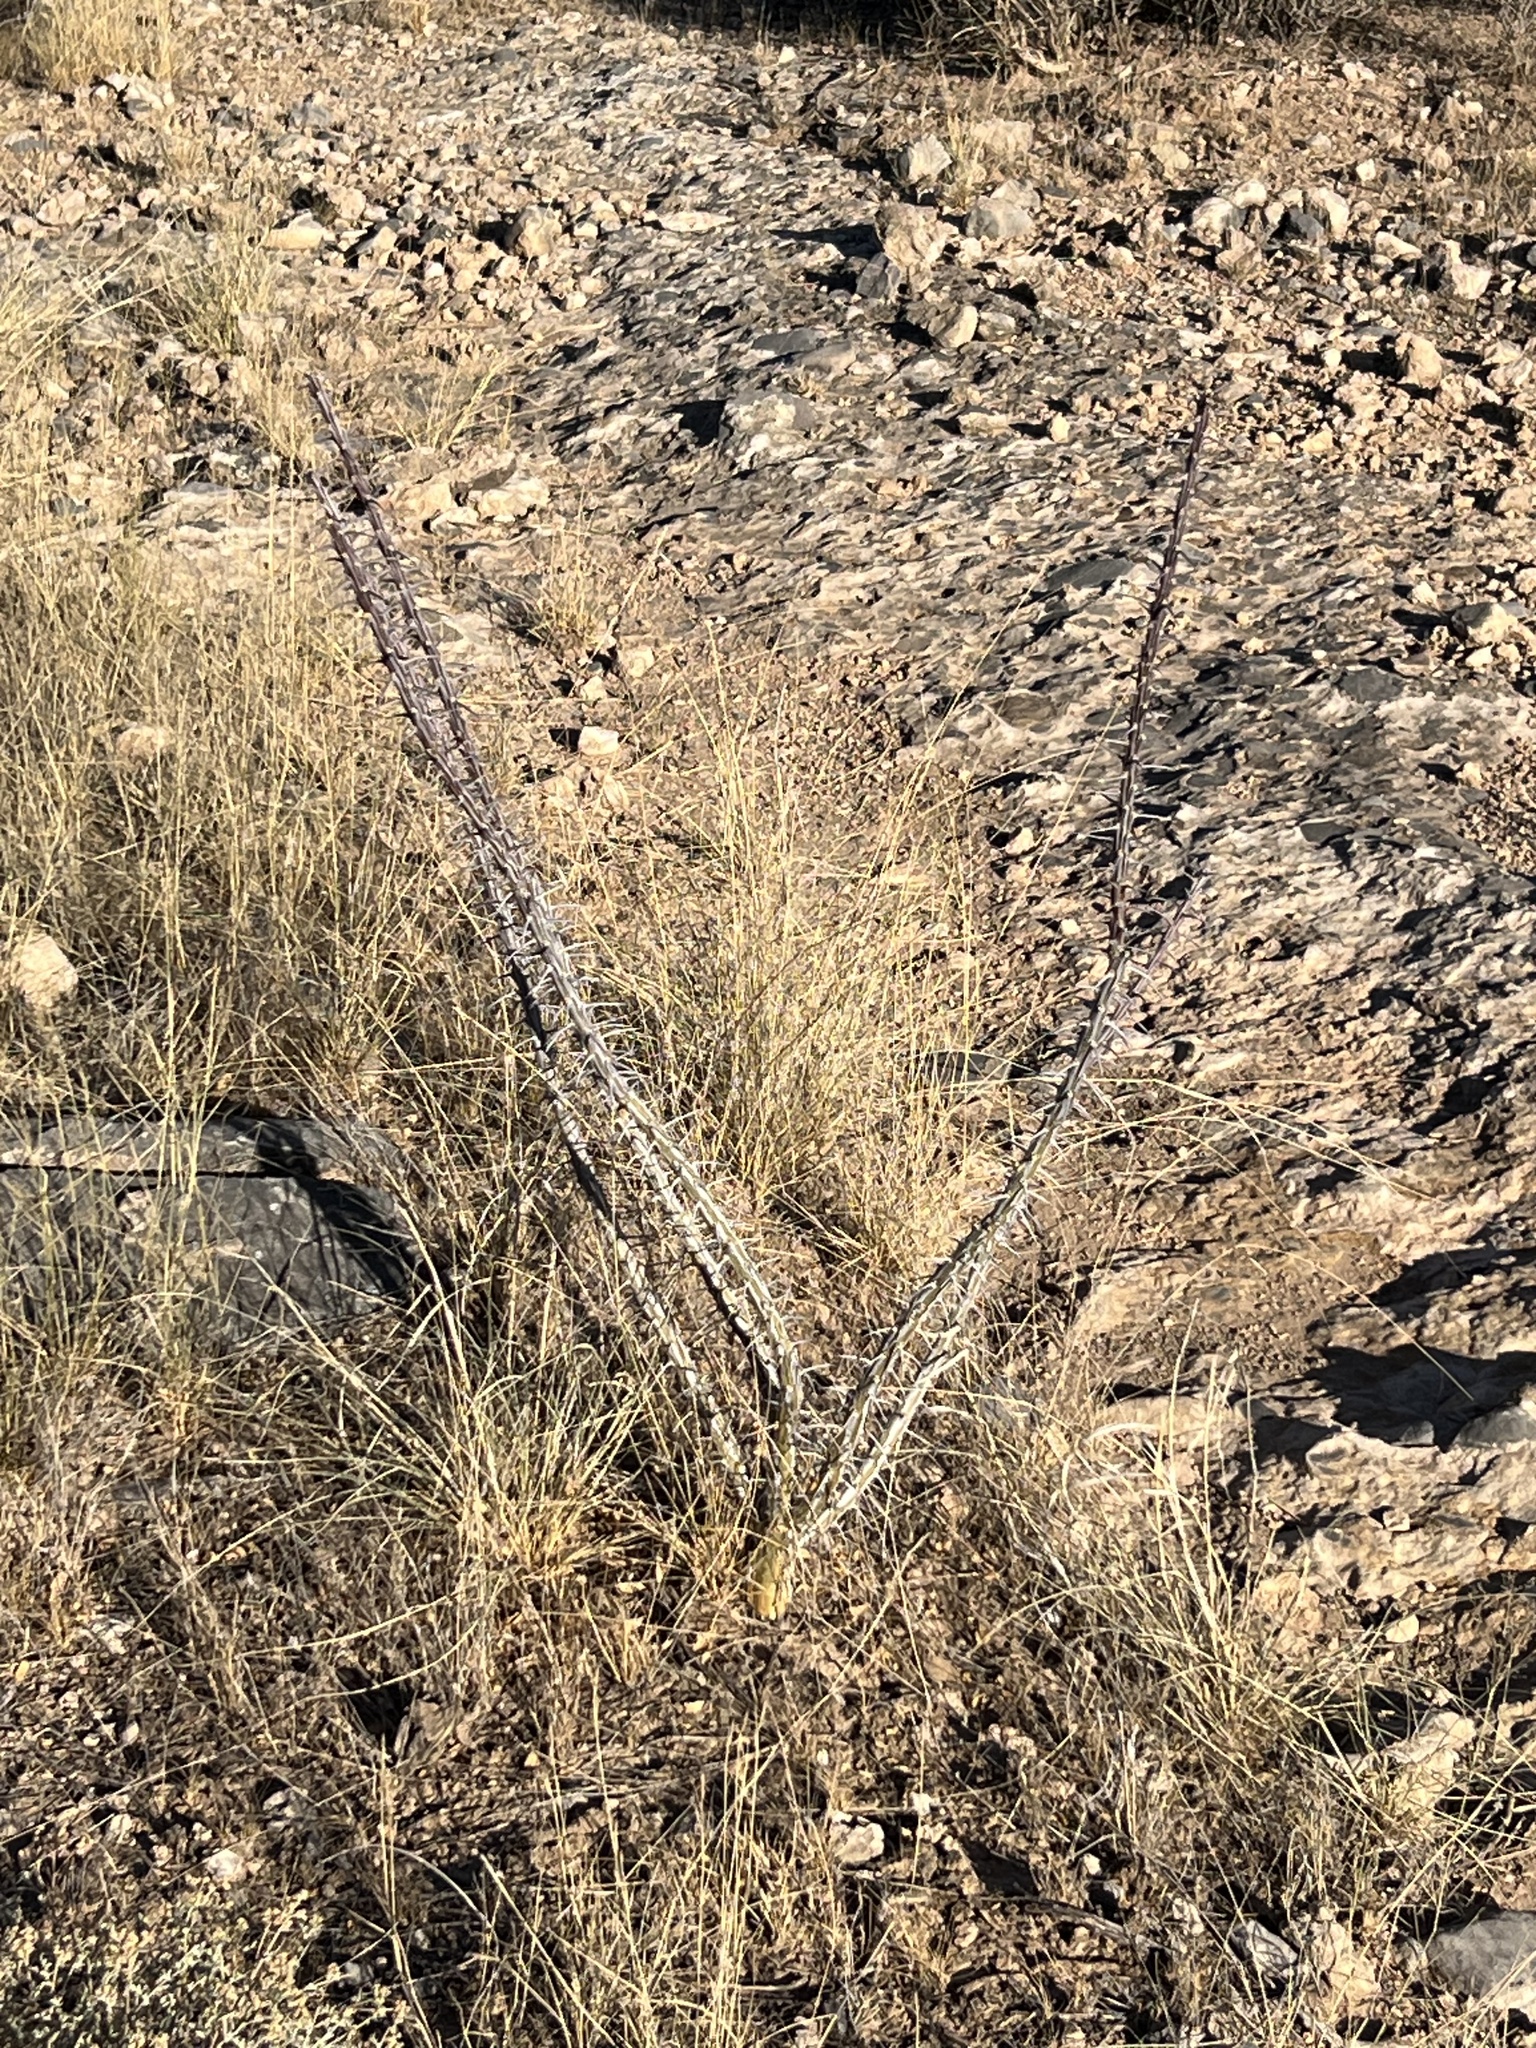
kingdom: Plantae
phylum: Tracheophyta
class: Magnoliopsida
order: Ericales
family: Fouquieriaceae
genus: Fouquieria
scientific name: Fouquieria splendens
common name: Vine-cactus
